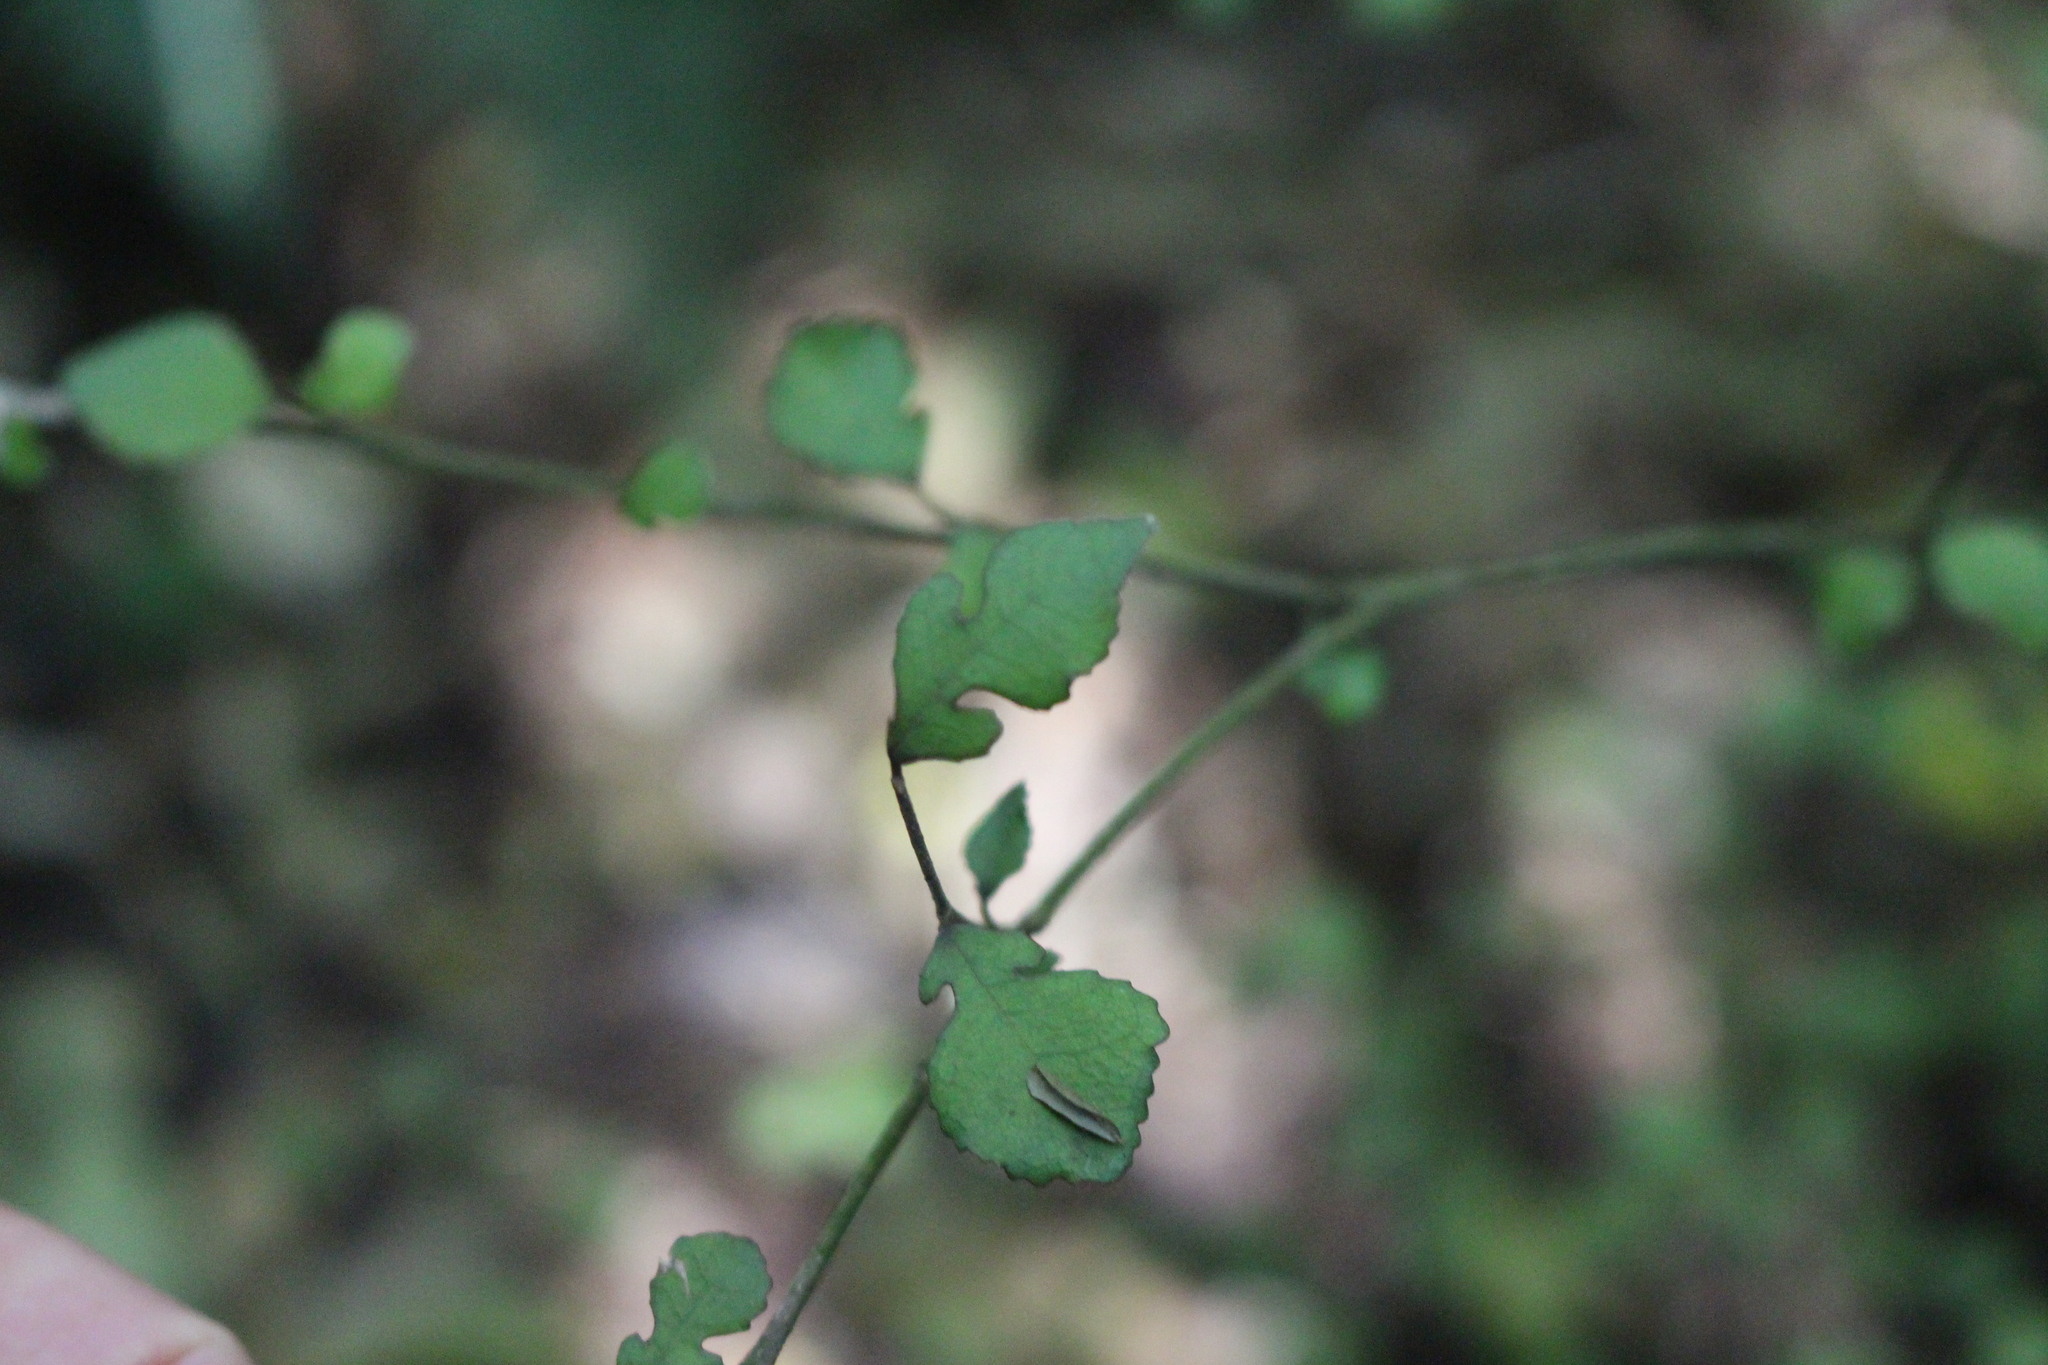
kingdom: Plantae
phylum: Tracheophyta
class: Magnoliopsida
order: Rosales
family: Moraceae
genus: Paratrophis
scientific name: Paratrophis microphylla
